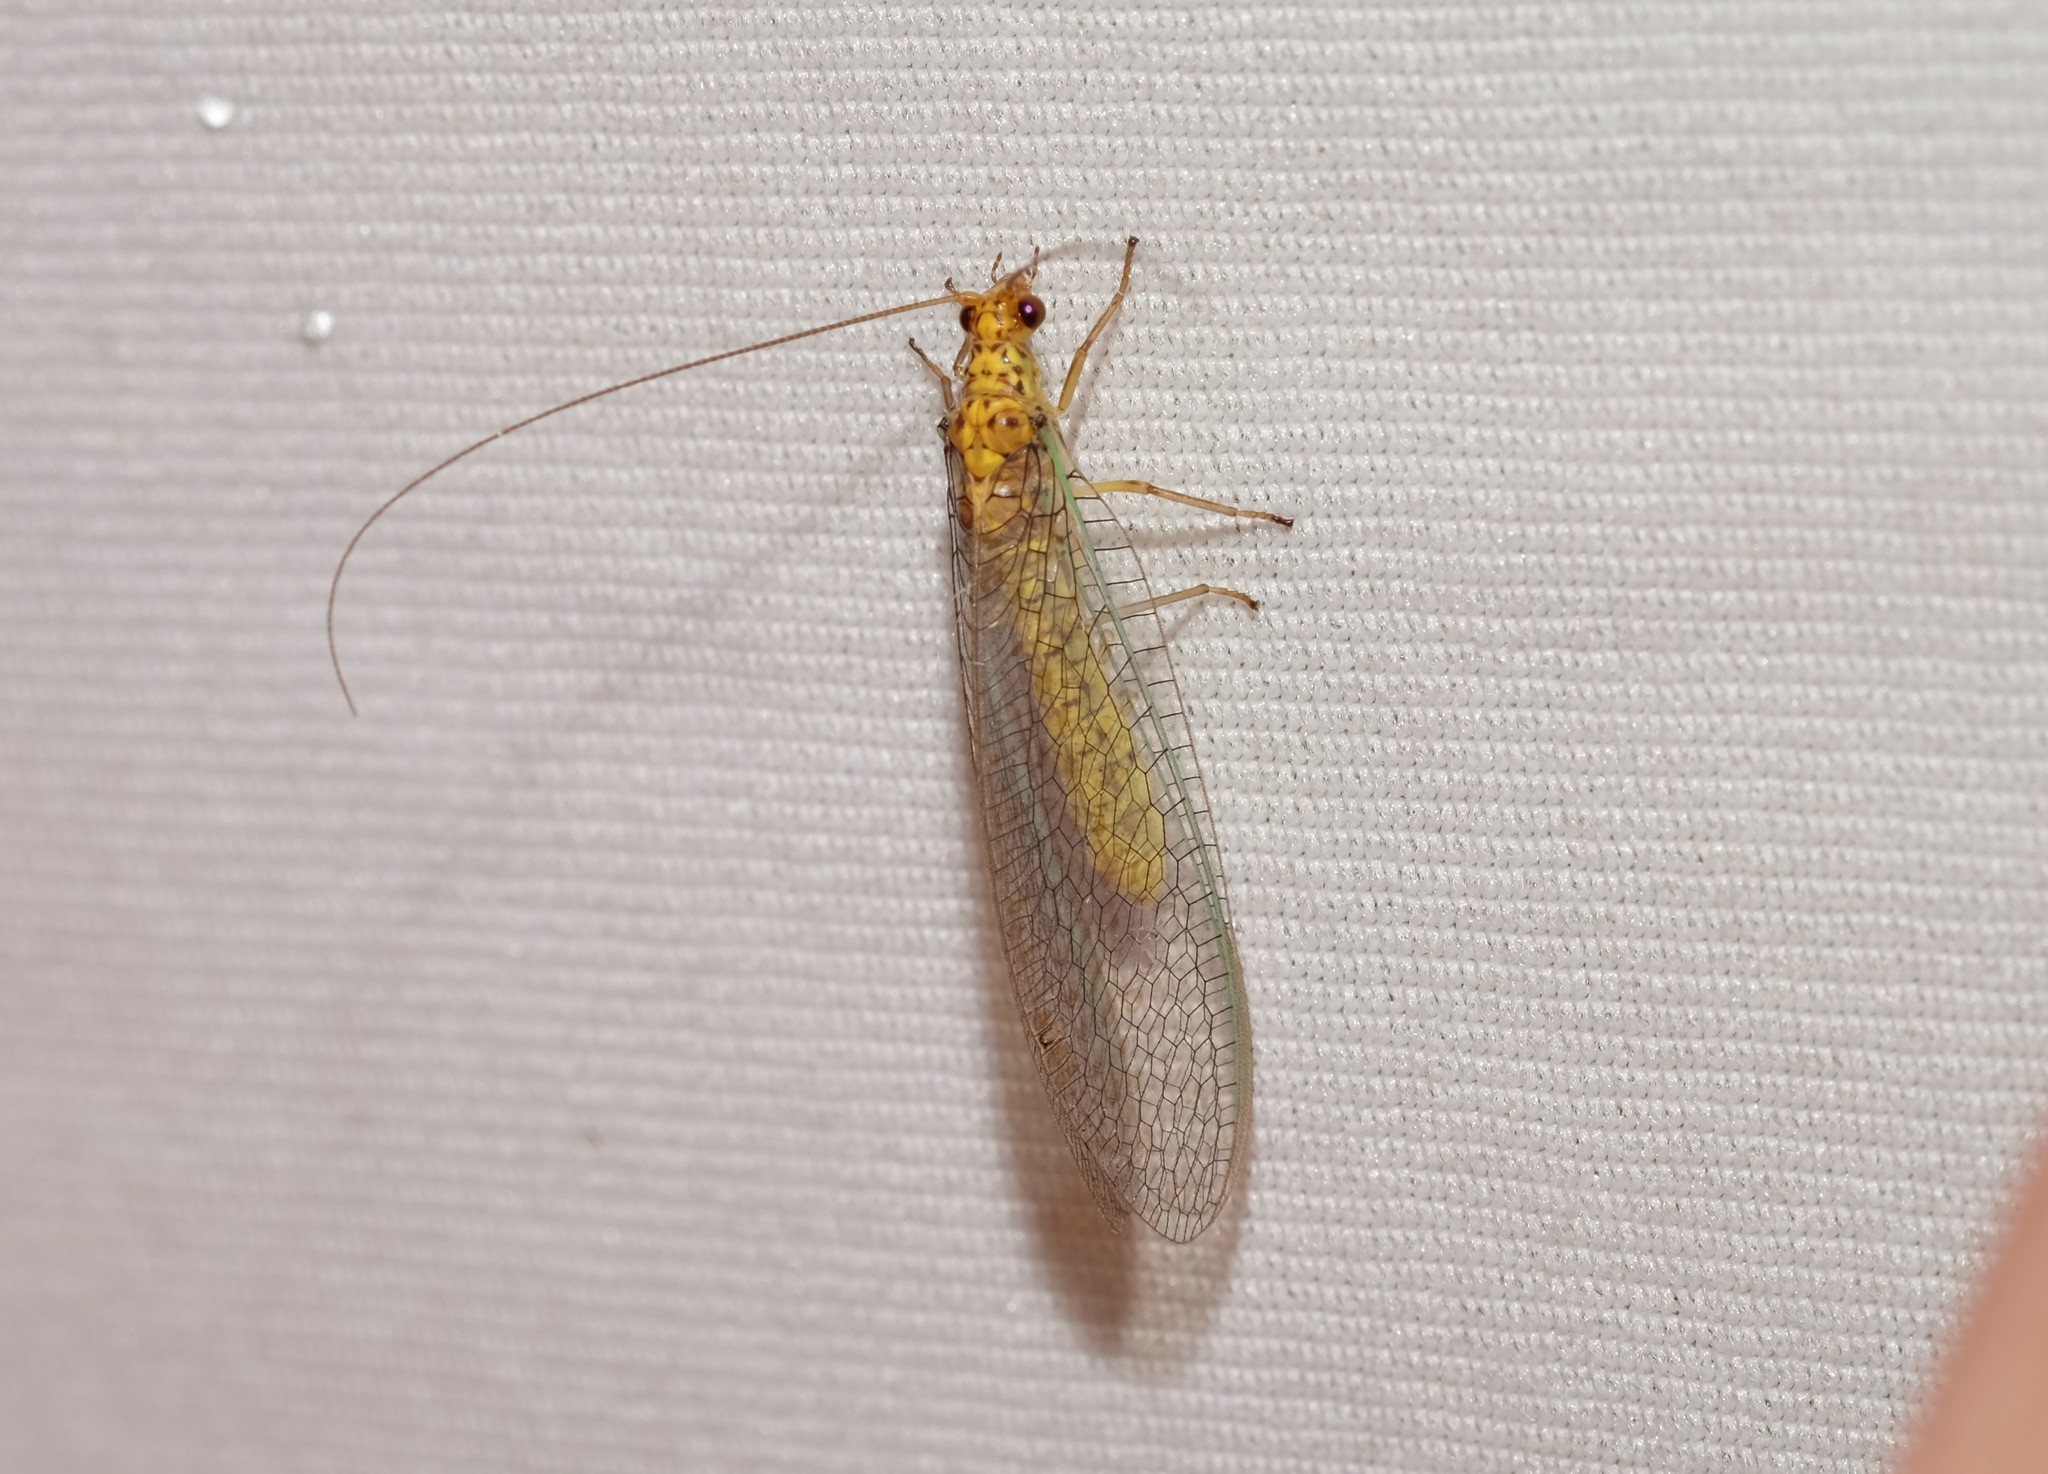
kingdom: Animalia
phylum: Arthropoda
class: Insecta
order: Neuroptera
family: Chrysopidae
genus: Dictyochrysa
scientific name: Dictyochrysa peterseni
